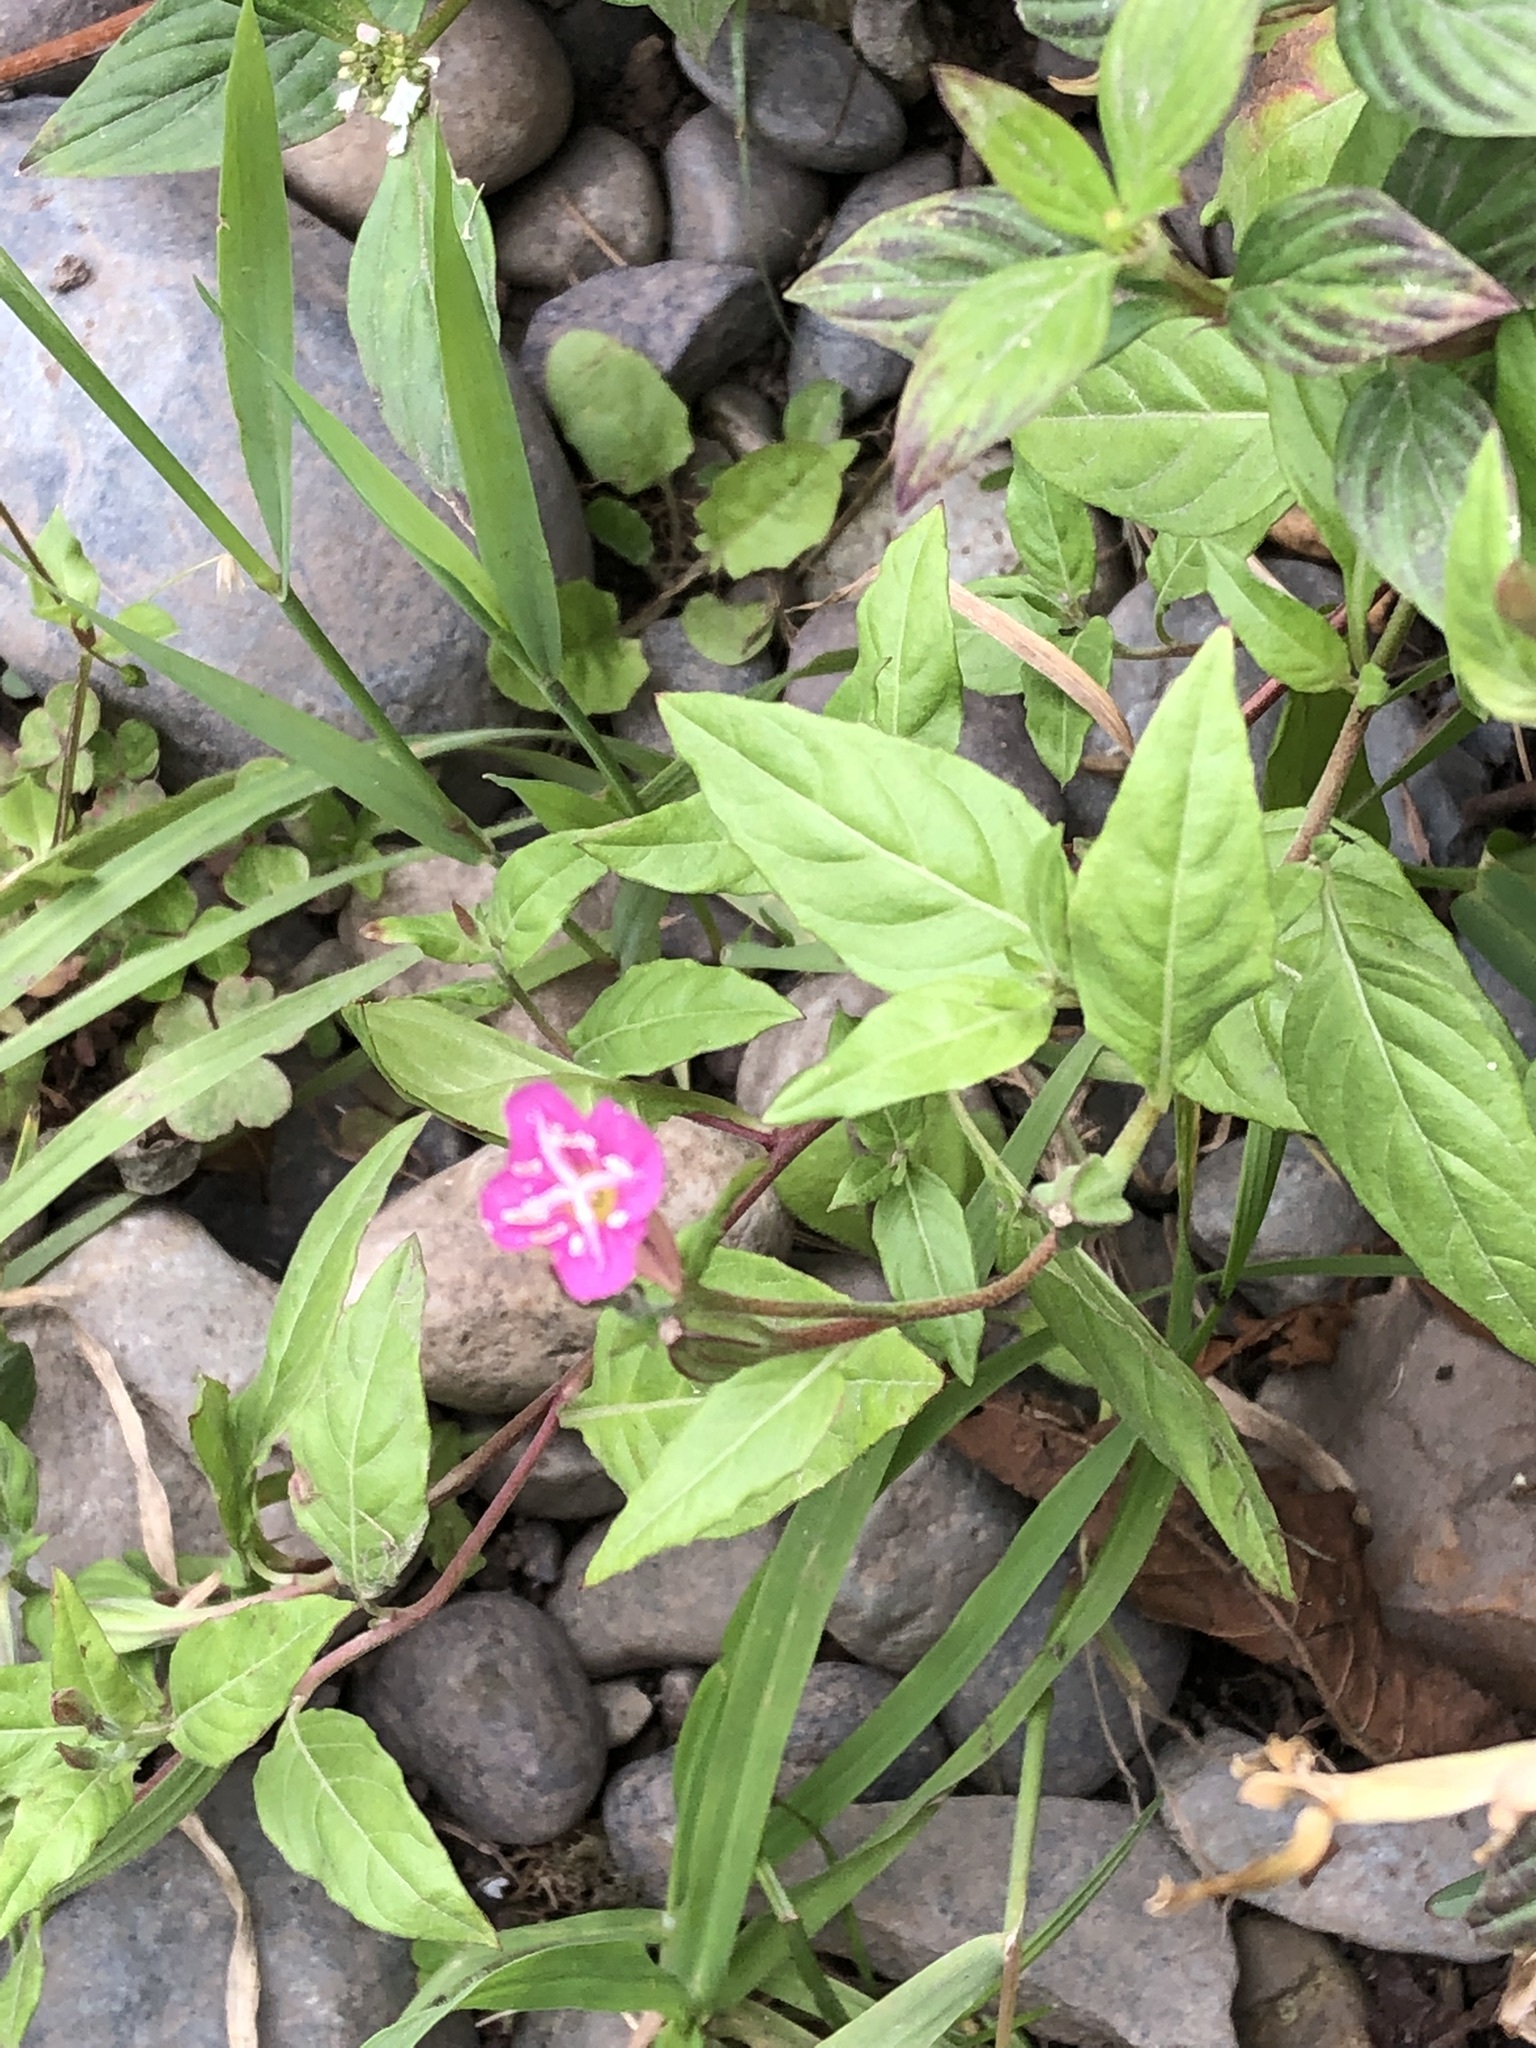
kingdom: Plantae
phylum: Tracheophyta
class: Magnoliopsida
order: Myrtales
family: Onagraceae
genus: Oenothera
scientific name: Oenothera rosea
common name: Rosy evening-primrose
